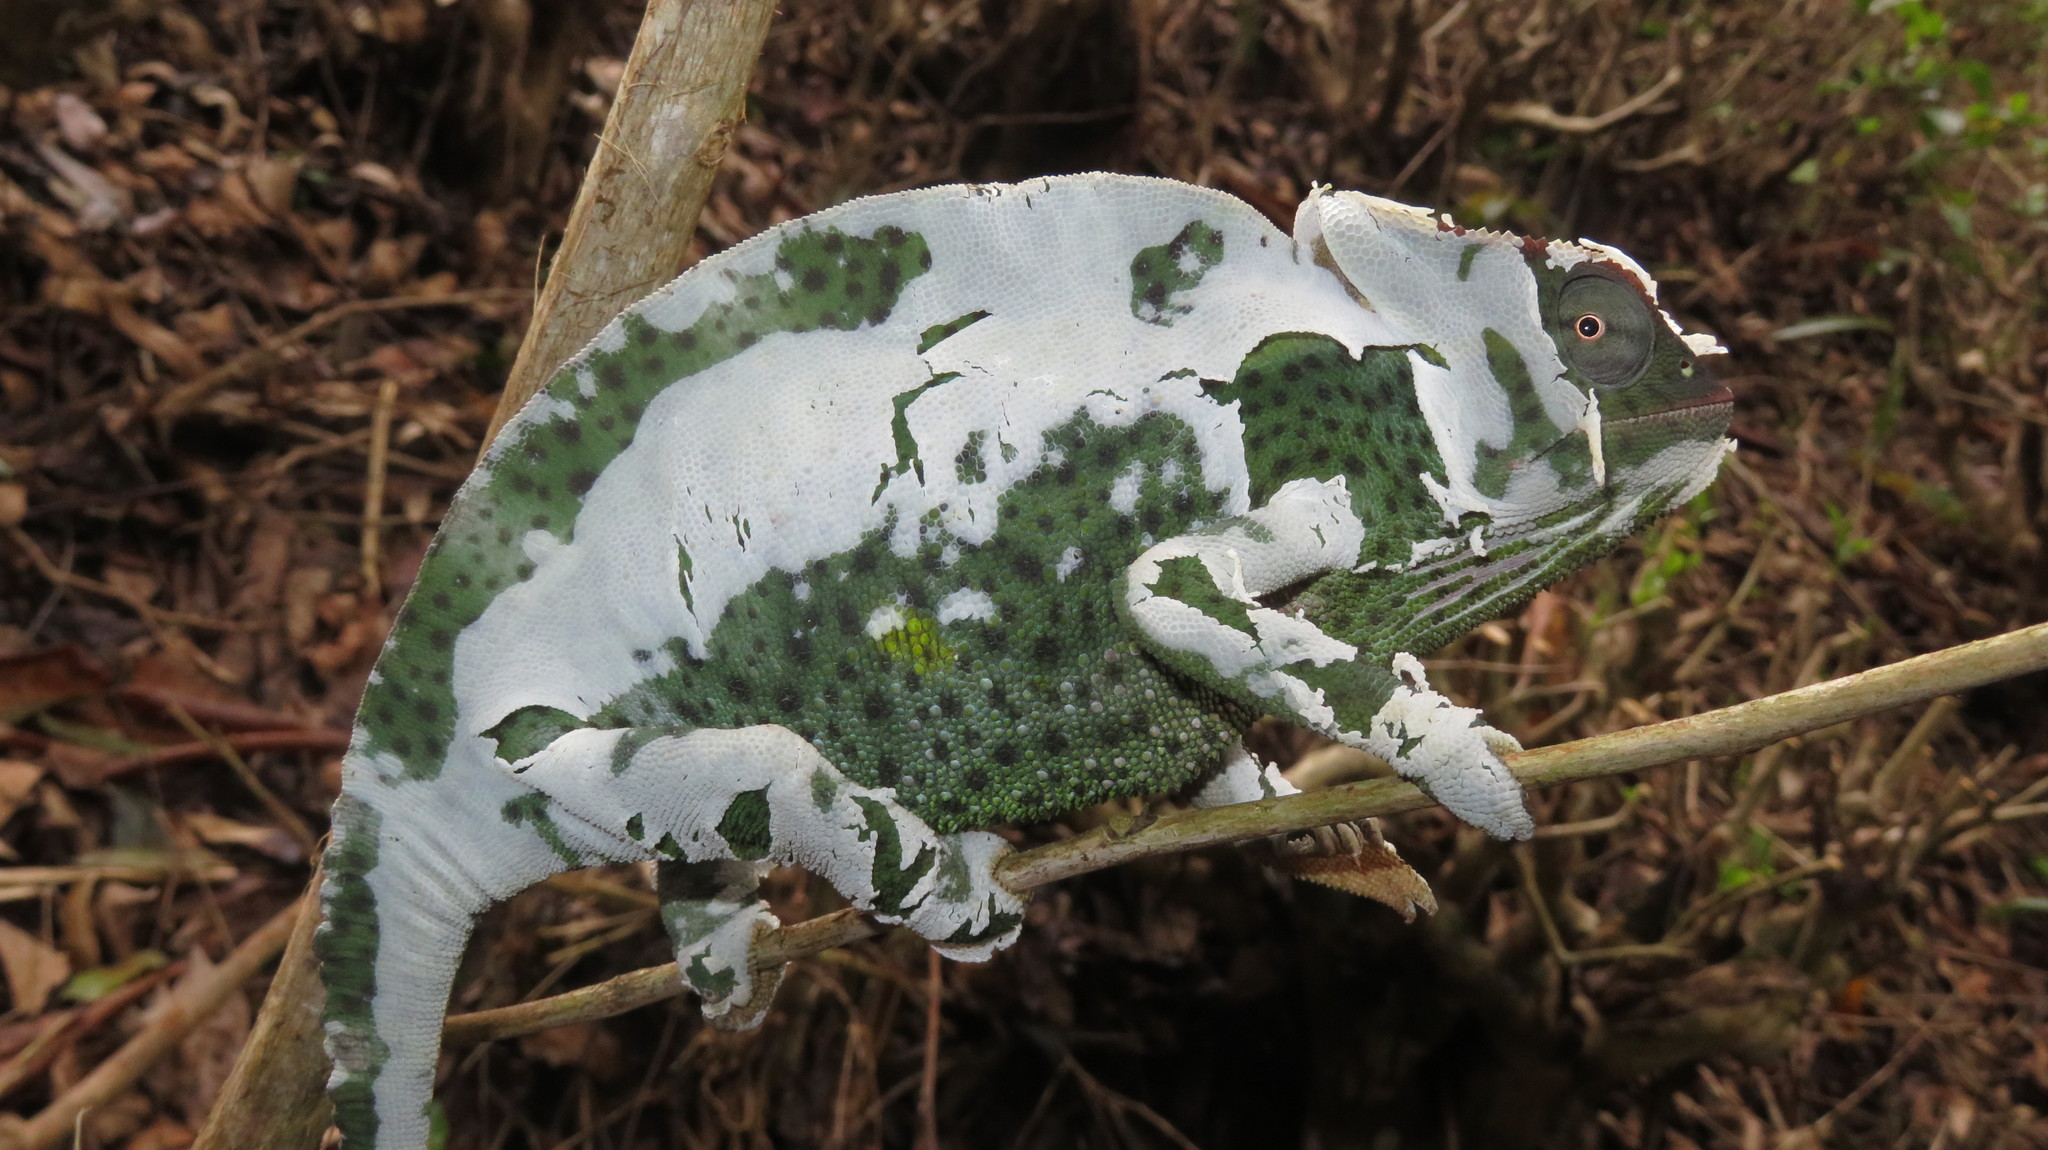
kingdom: Animalia
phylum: Chordata
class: Squamata
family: Chamaeleonidae
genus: Trioceros
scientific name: Trioceros deremensis
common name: Wavy chameleon
